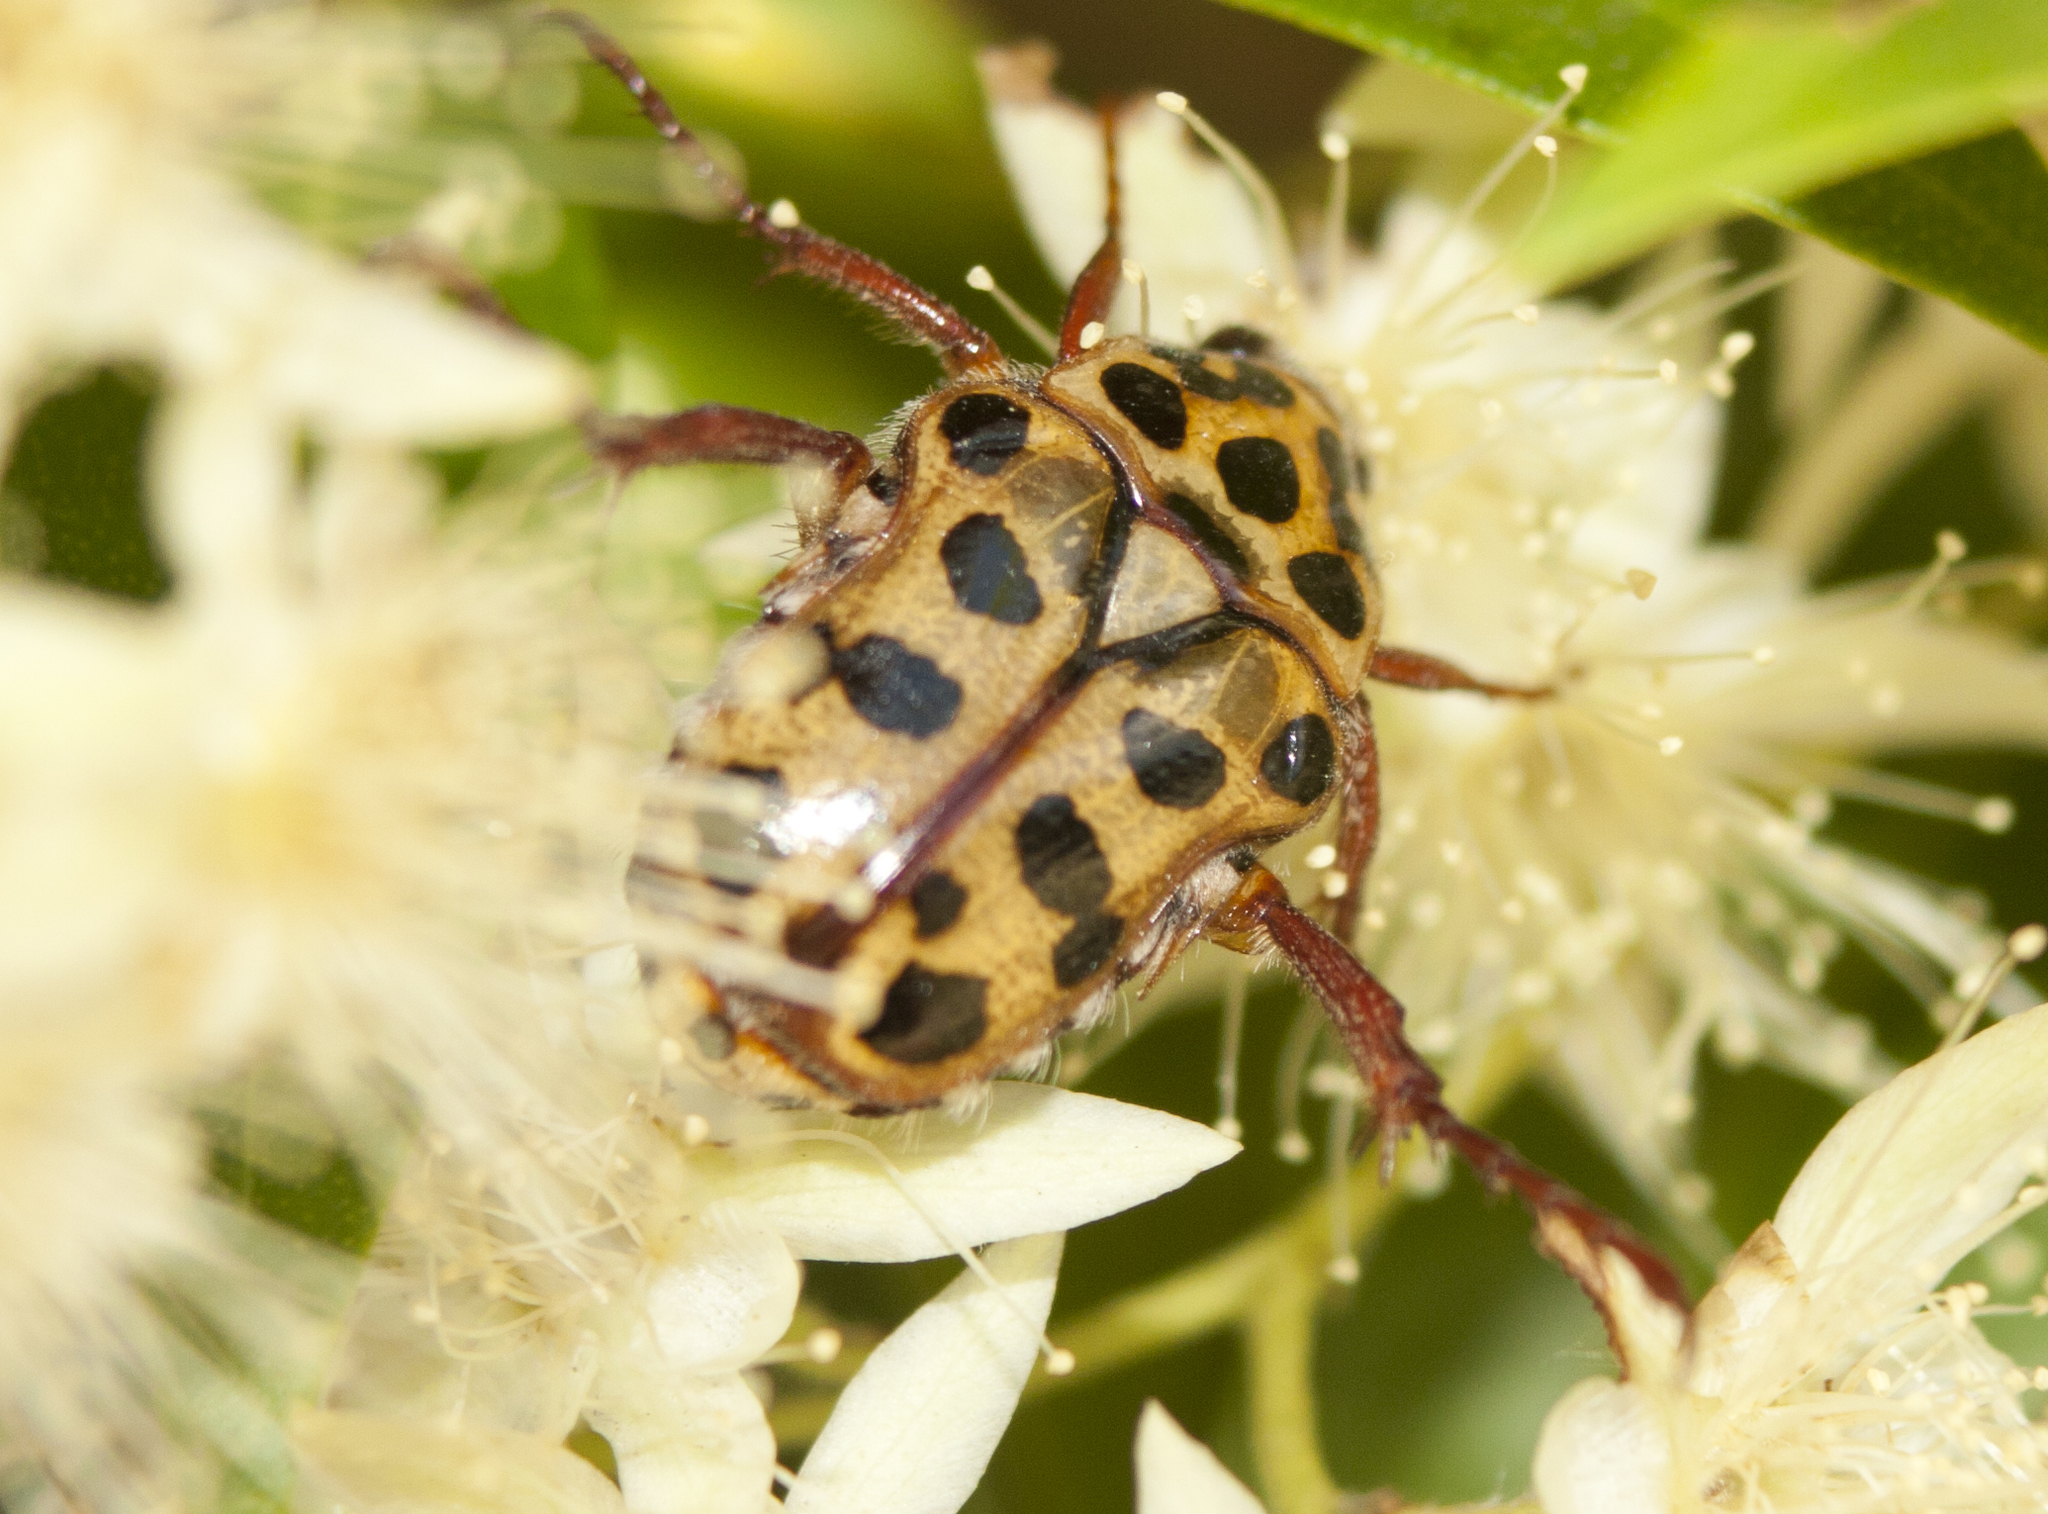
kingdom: Animalia
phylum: Arthropoda
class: Insecta
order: Coleoptera
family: Scarabaeidae
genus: Neorrhina
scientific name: Neorrhina punctatum
